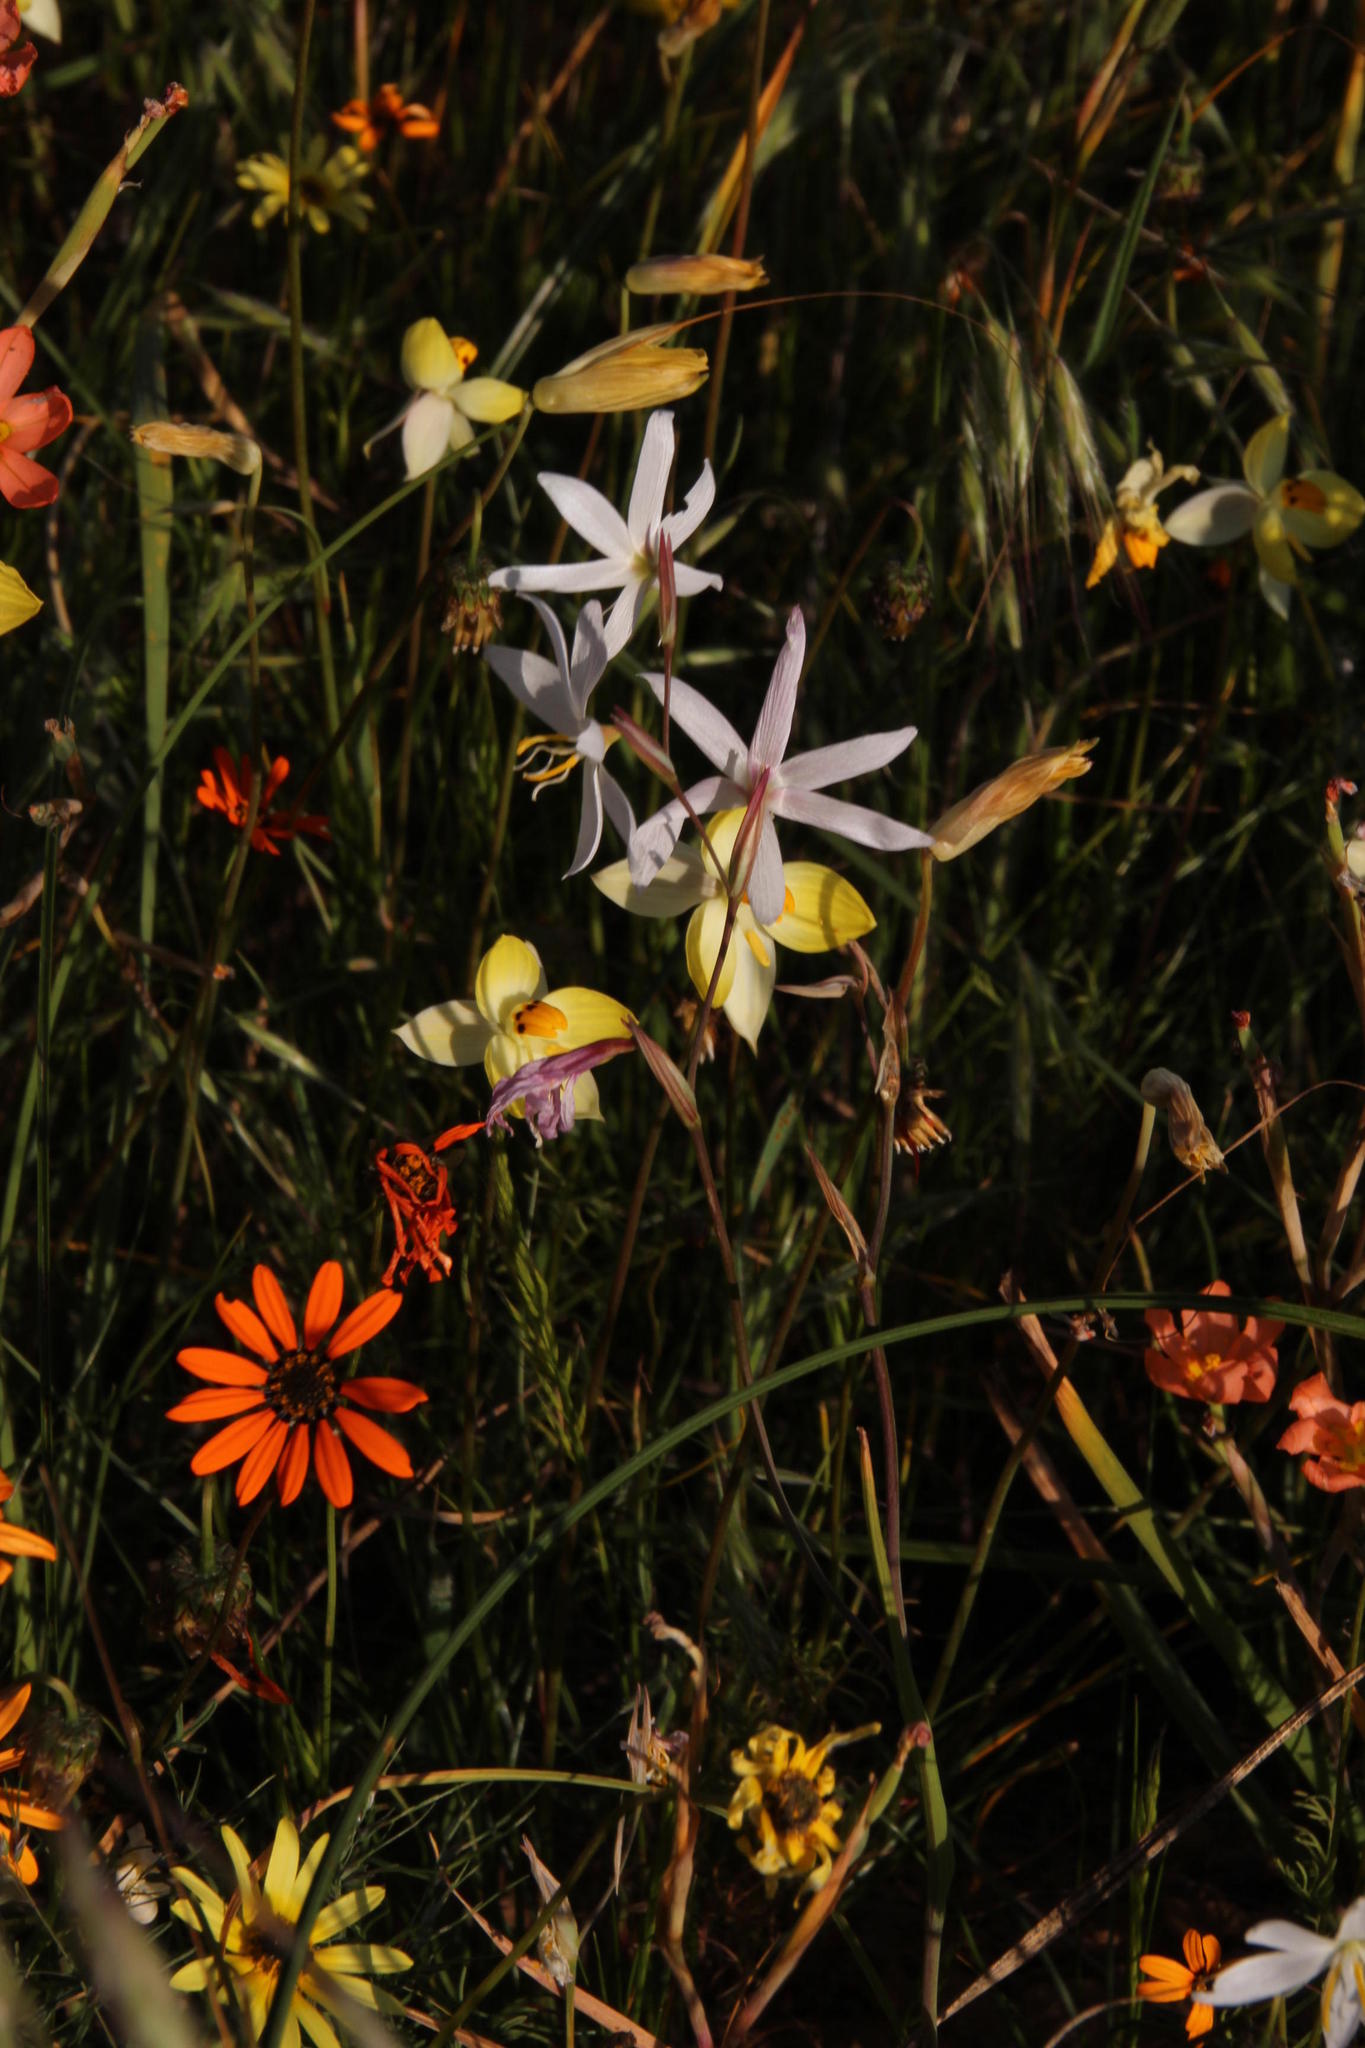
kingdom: Plantae
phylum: Tracheophyta
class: Liliopsida
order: Asparagales
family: Tecophilaeaceae
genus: Cyanella
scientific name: Cyanella alba
